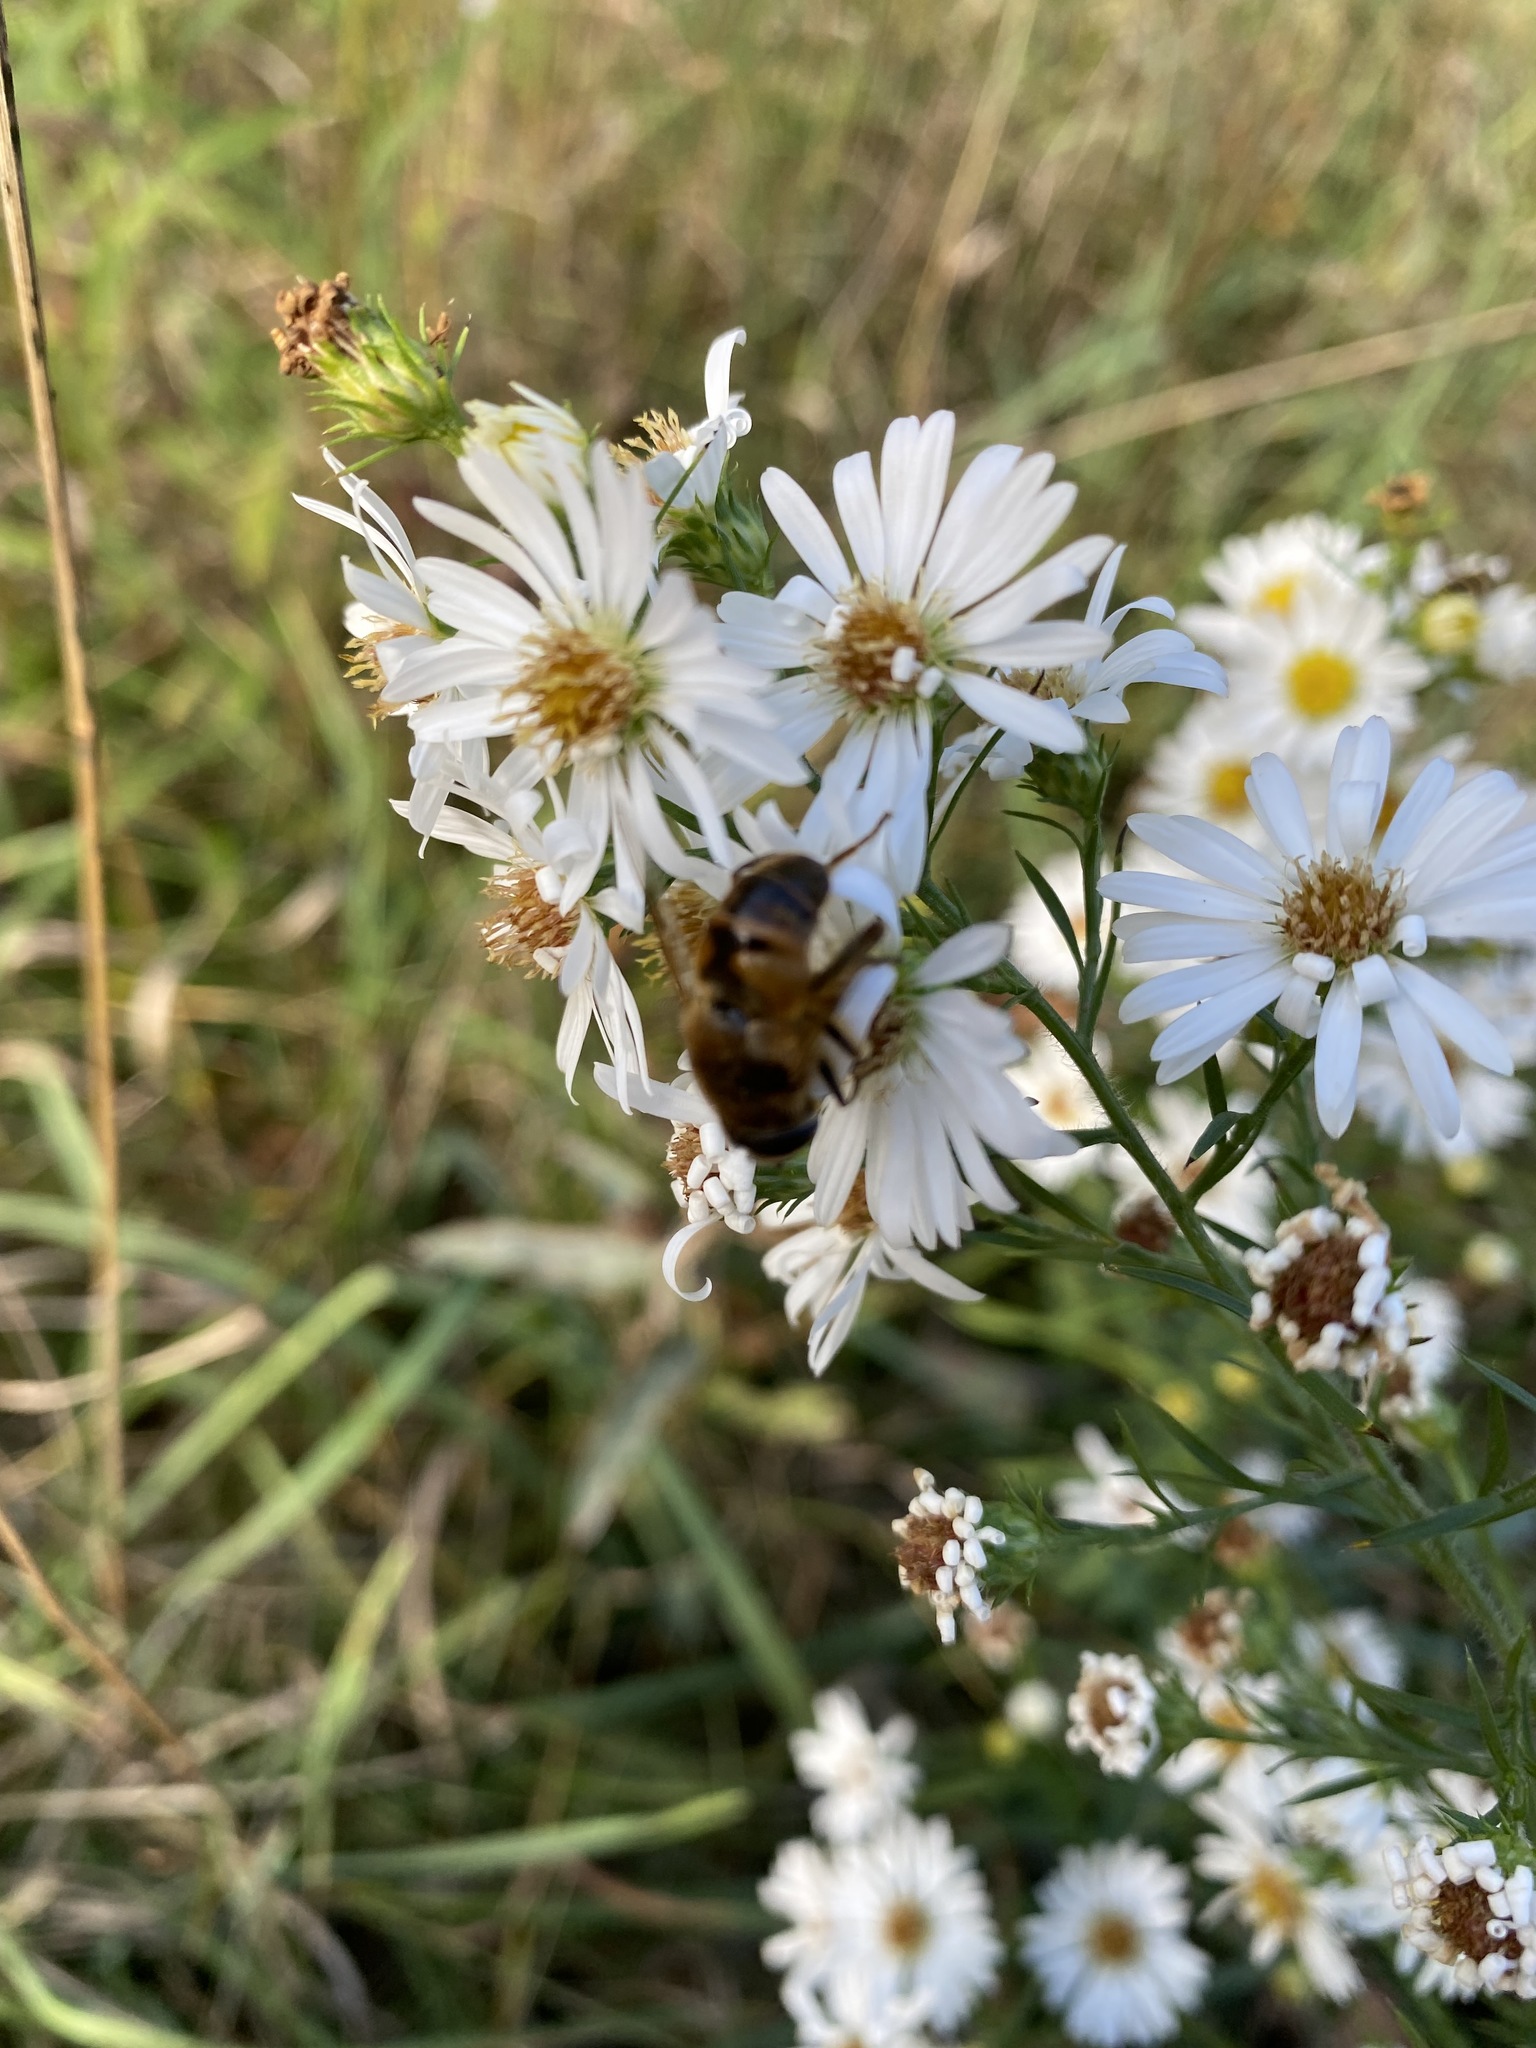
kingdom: Animalia
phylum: Arthropoda
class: Insecta
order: Diptera
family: Syrphidae
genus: Eristalis
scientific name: Eristalis tenax
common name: Drone fly
